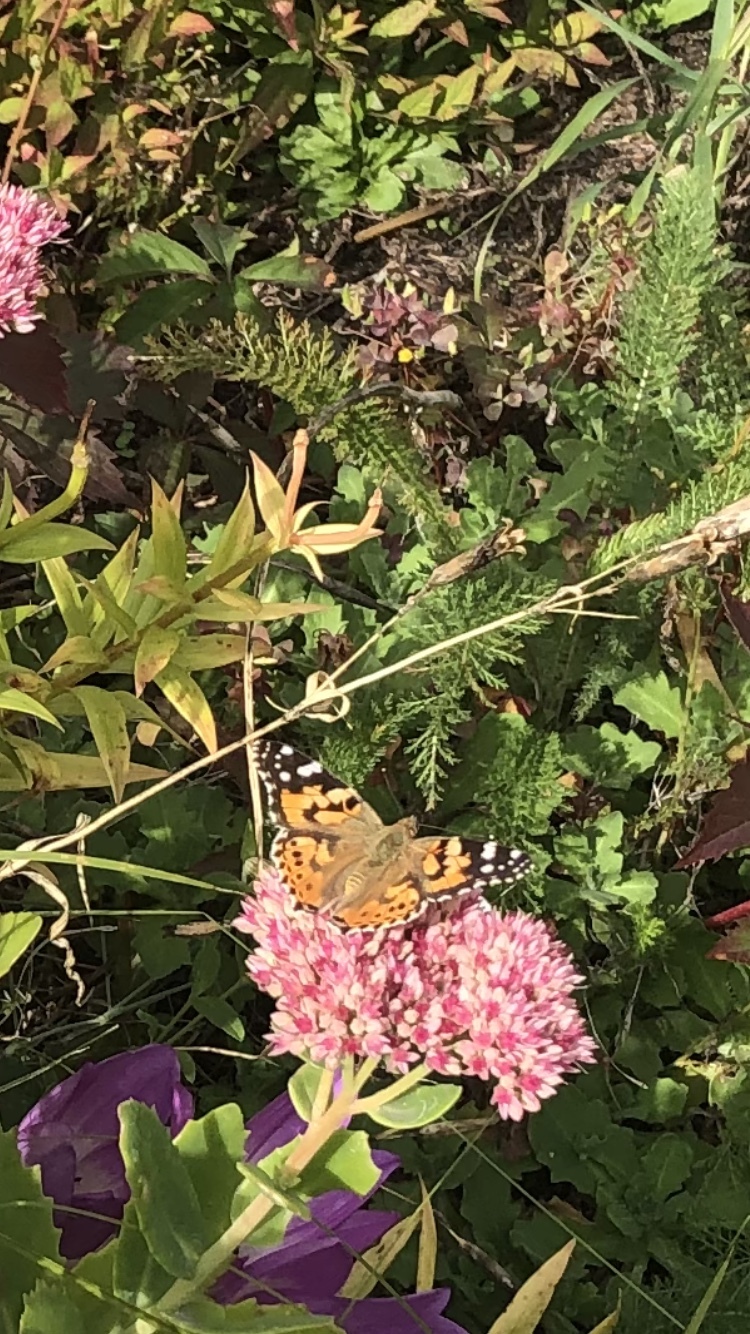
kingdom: Animalia
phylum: Arthropoda
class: Insecta
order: Lepidoptera
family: Nymphalidae
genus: Vanessa
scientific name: Vanessa cardui
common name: Painted lady
